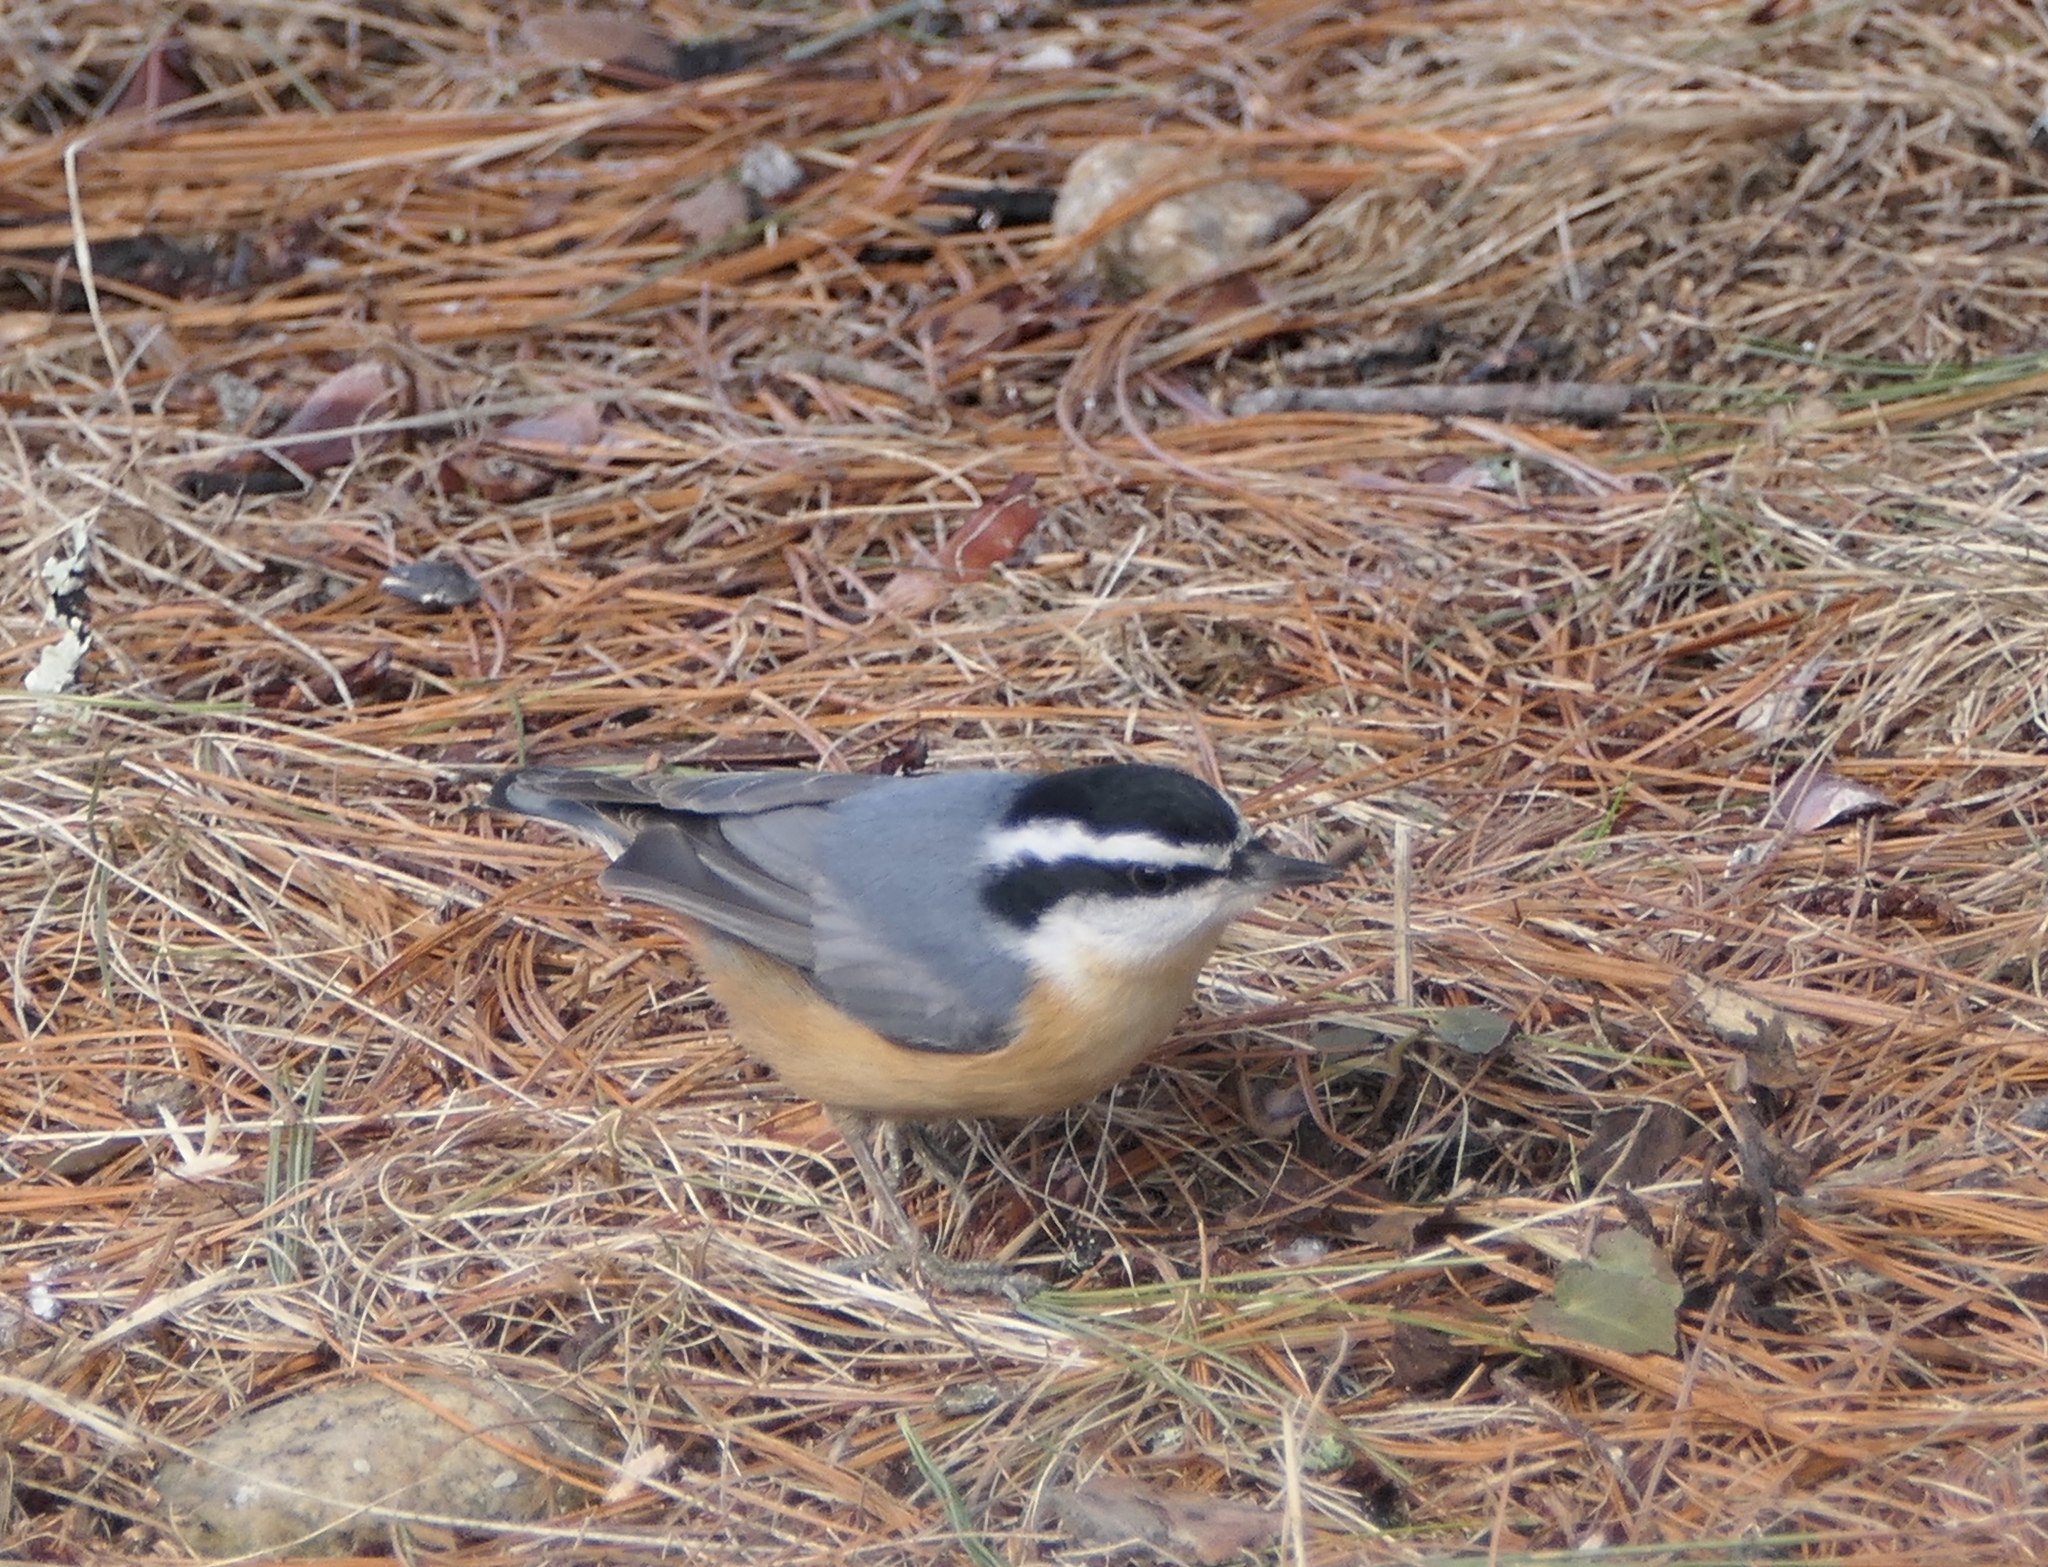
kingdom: Animalia
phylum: Chordata
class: Aves
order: Passeriformes
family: Sittidae
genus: Sitta
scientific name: Sitta canadensis
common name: Red-breasted nuthatch
